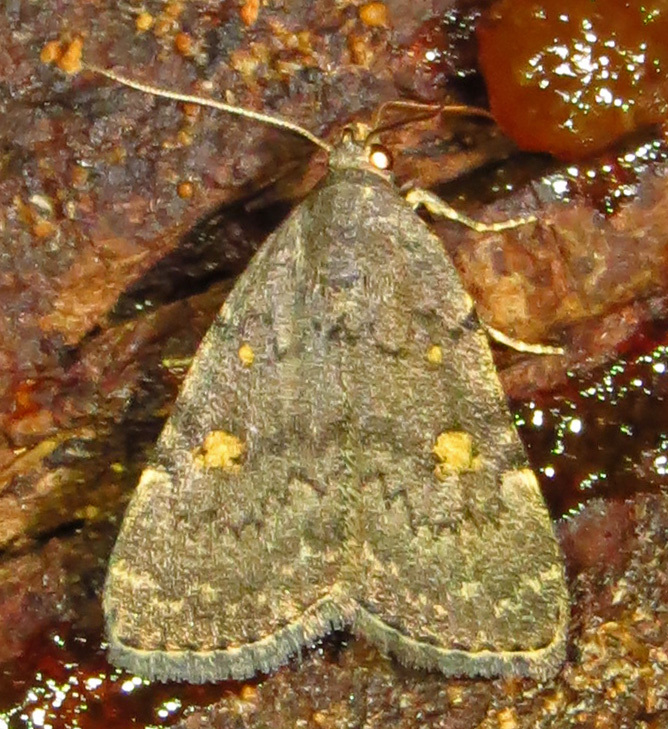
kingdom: Animalia
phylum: Arthropoda
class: Insecta
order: Lepidoptera
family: Erebidae
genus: Idia
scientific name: Idia aemula
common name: Common idia moth
